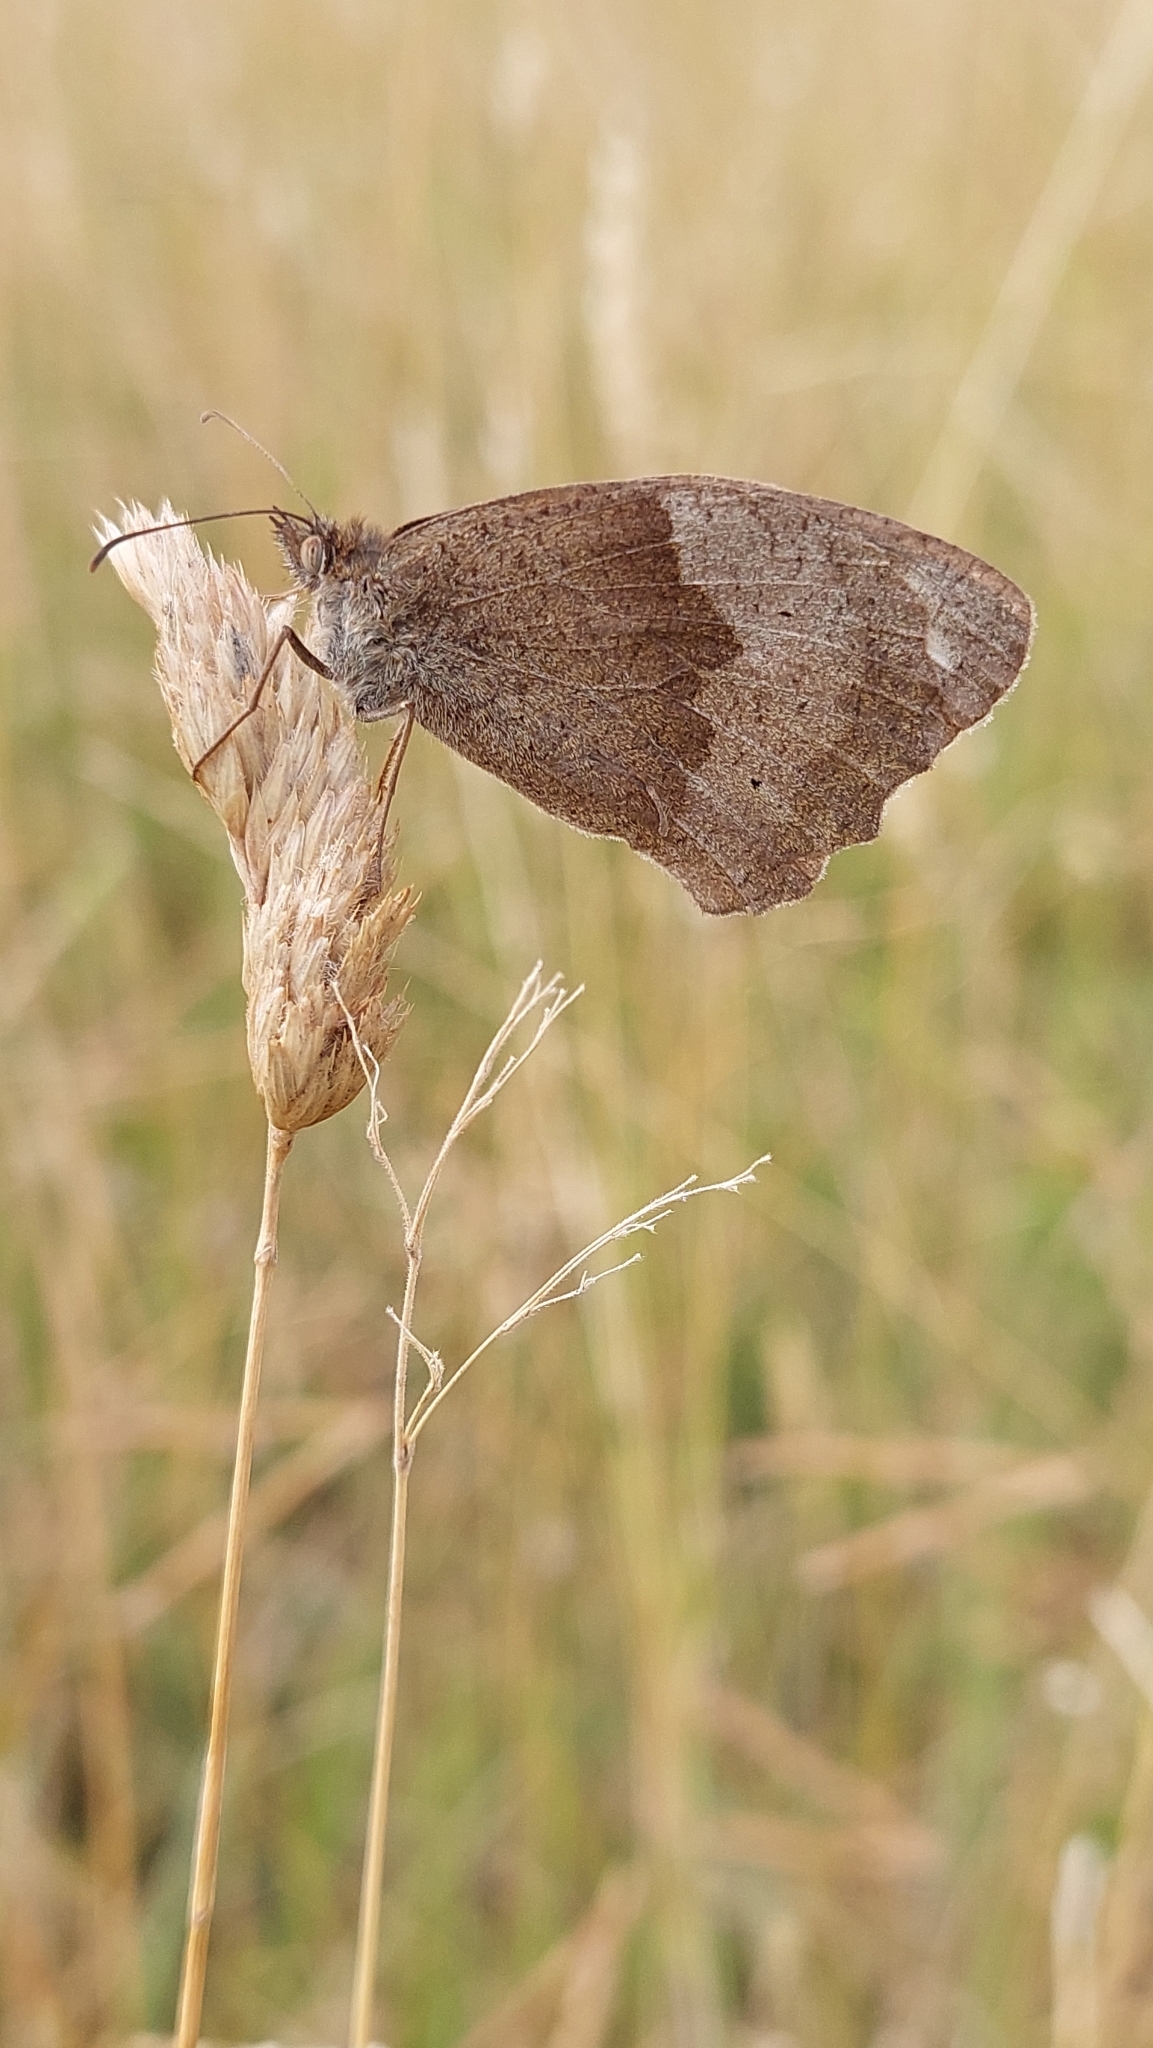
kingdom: Animalia
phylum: Arthropoda
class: Insecta
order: Lepidoptera
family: Nymphalidae
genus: Maniola
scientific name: Maniola jurtina
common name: Meadow brown
